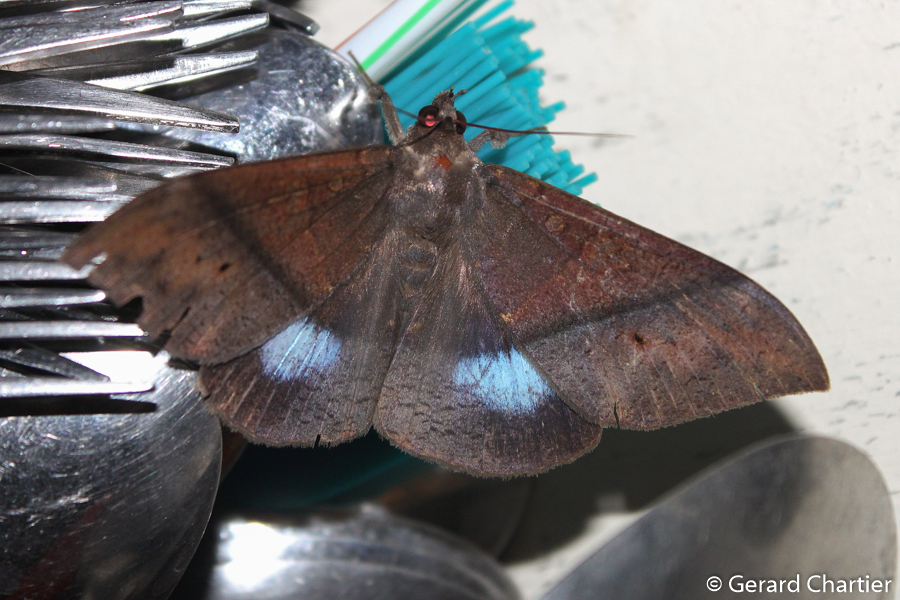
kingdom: Animalia
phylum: Arthropoda
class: Insecta
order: Lepidoptera
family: Erebidae
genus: Ischyja
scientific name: Ischyja inferna
